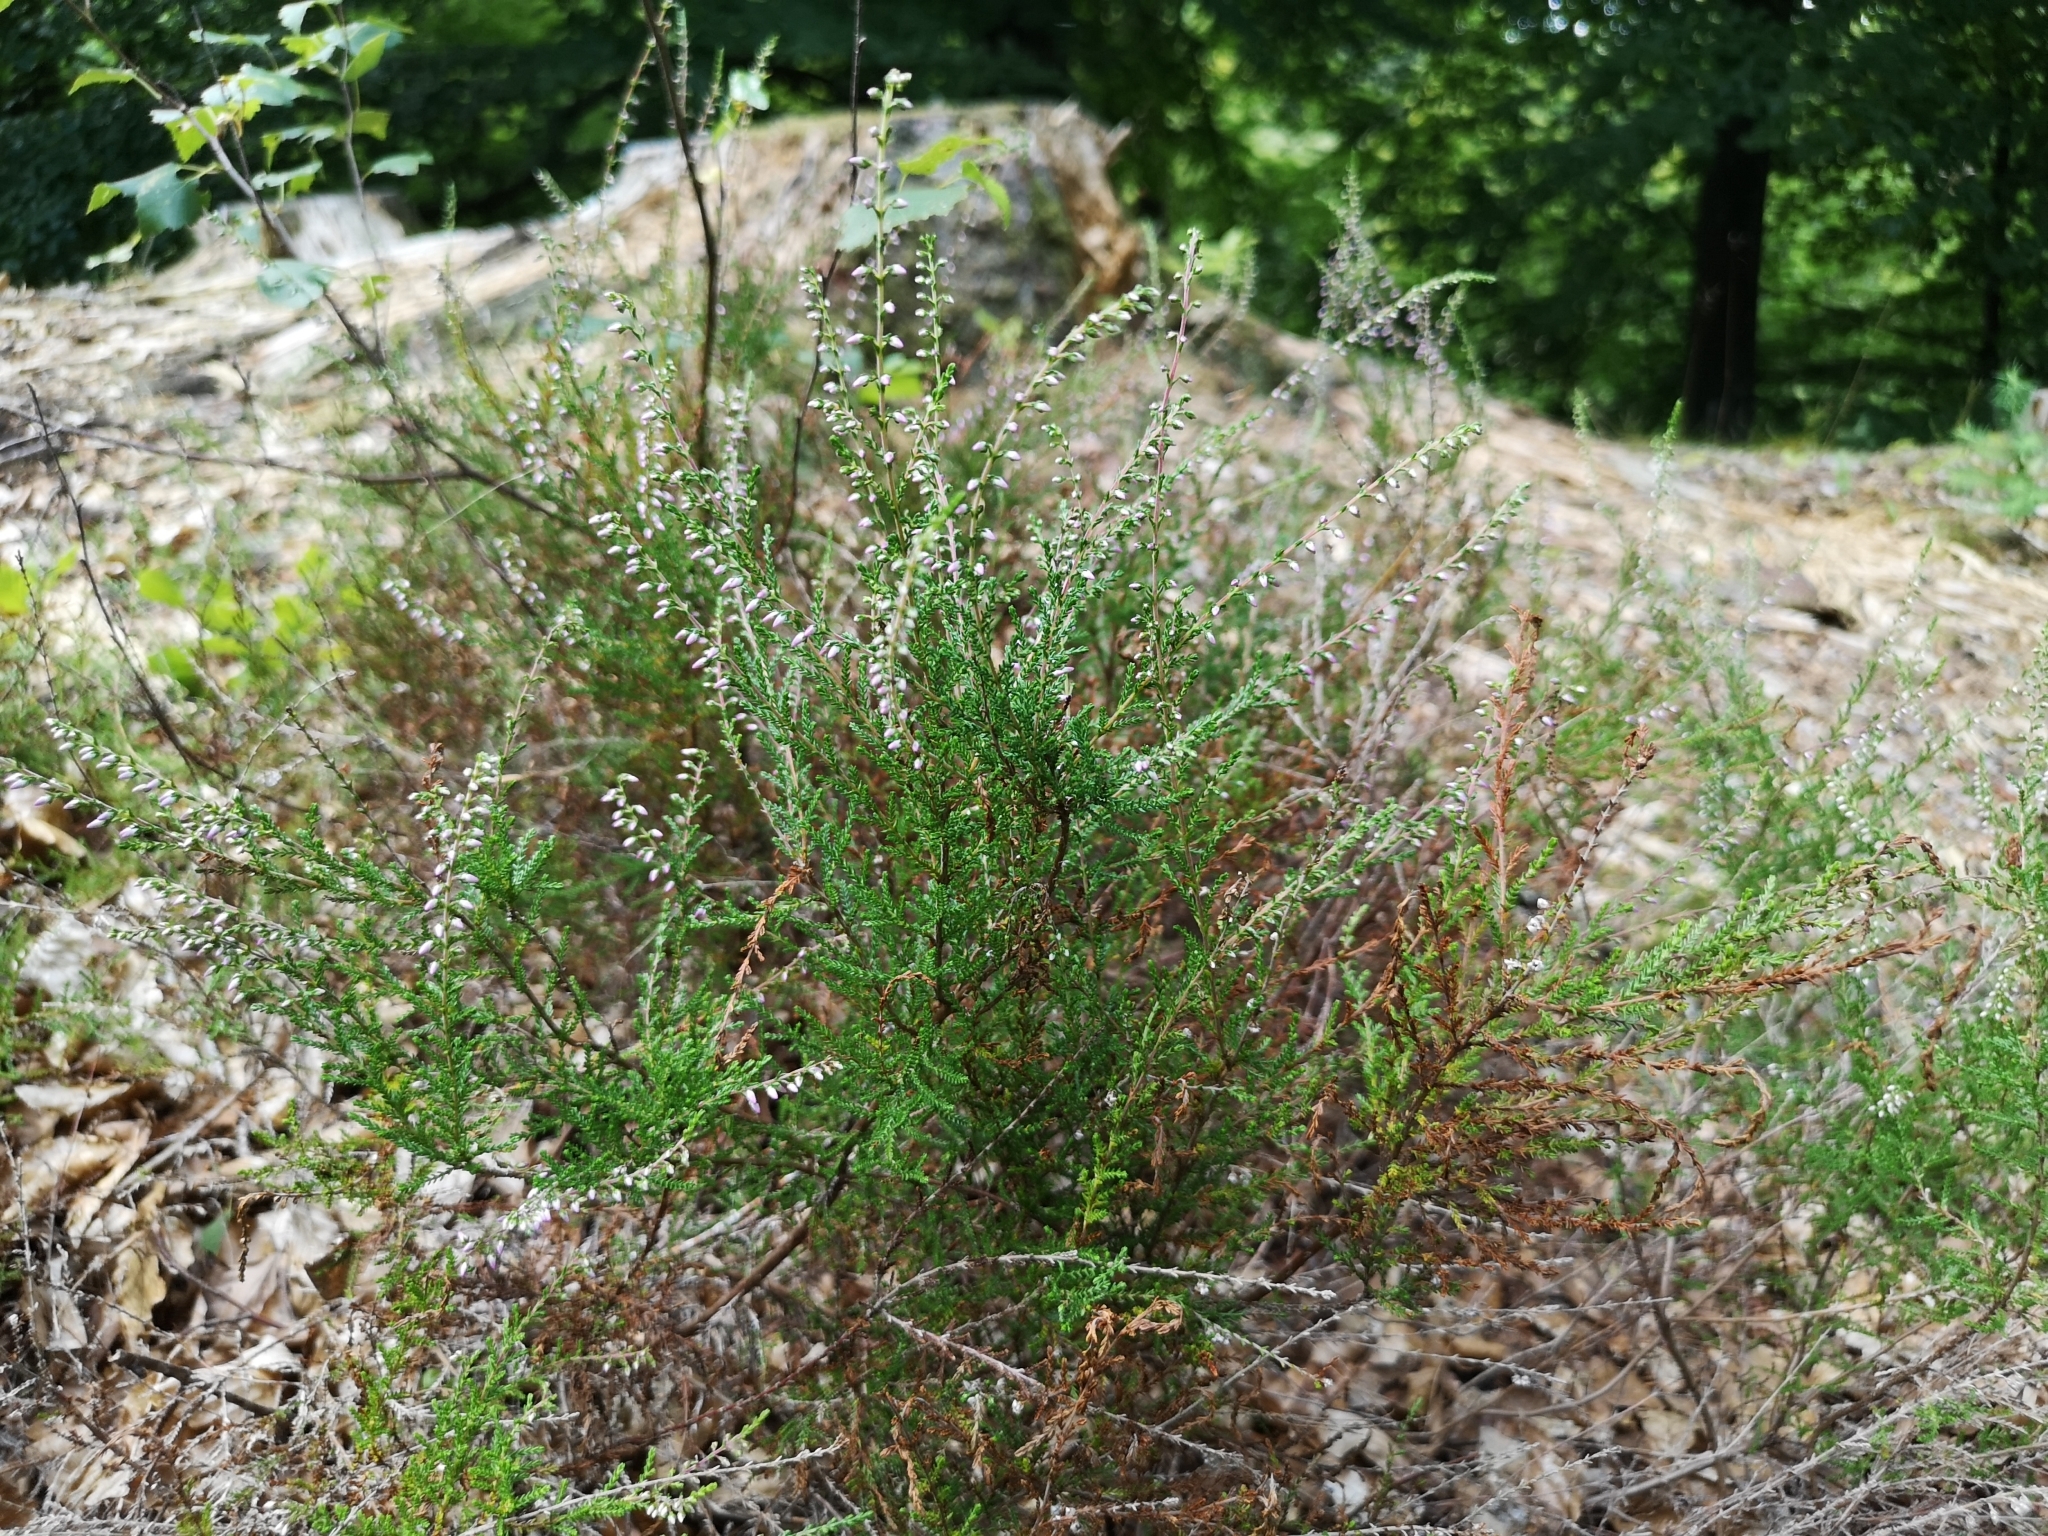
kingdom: Plantae
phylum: Tracheophyta
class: Magnoliopsida
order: Ericales
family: Ericaceae
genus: Calluna
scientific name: Calluna vulgaris
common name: Heather
